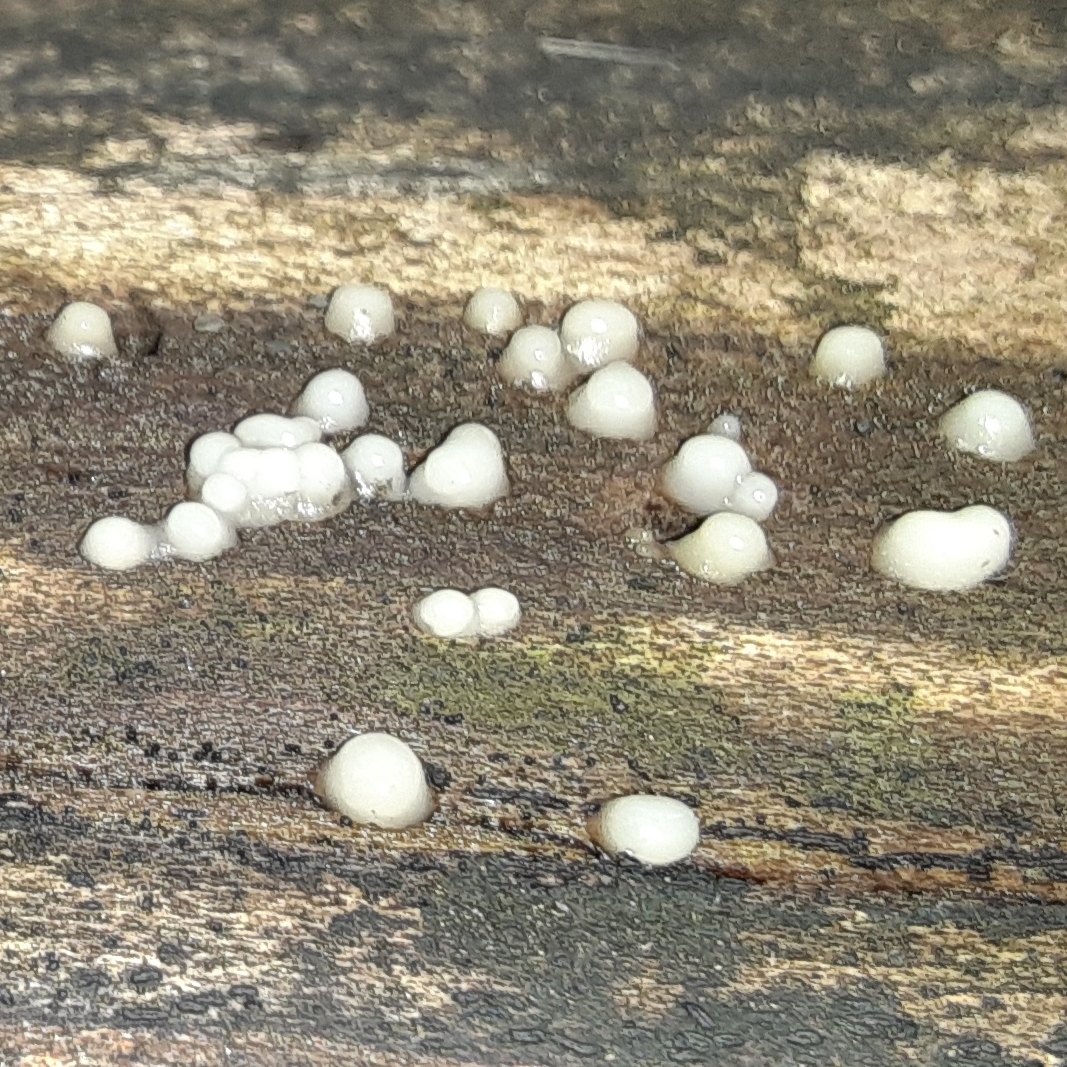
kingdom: Fungi
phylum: Basidiomycota
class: Atractiellomycetes
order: Atractiellales
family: Phleogenaceae
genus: Helicogloea
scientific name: Helicogloea compressa
